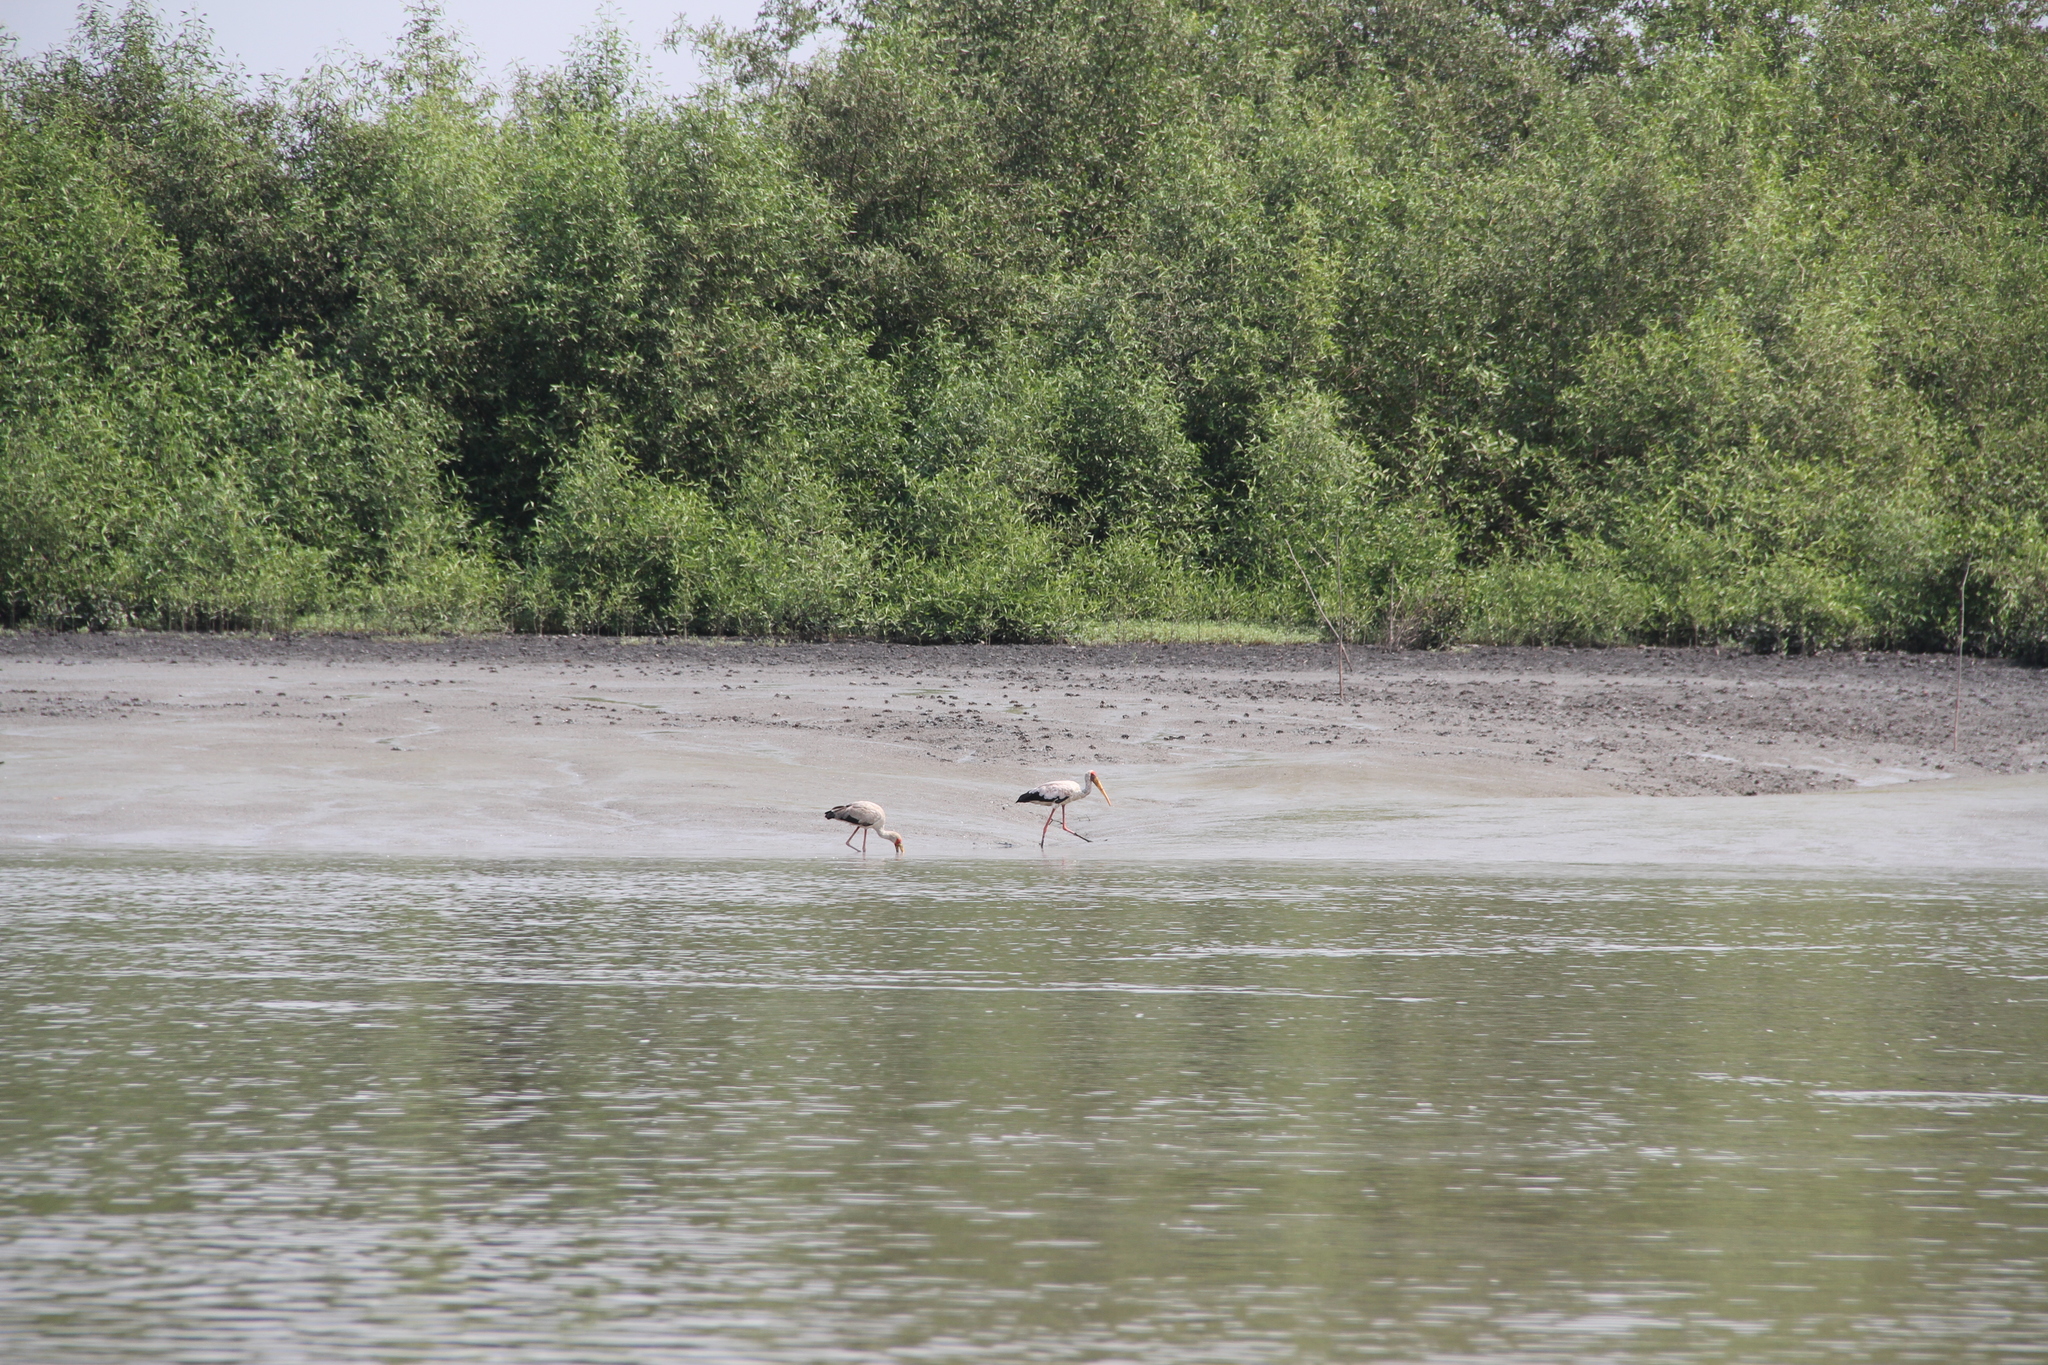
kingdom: Animalia
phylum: Chordata
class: Aves
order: Ciconiiformes
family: Ciconiidae
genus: Mycteria
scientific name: Mycteria ibis
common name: Yellow-billed stork
